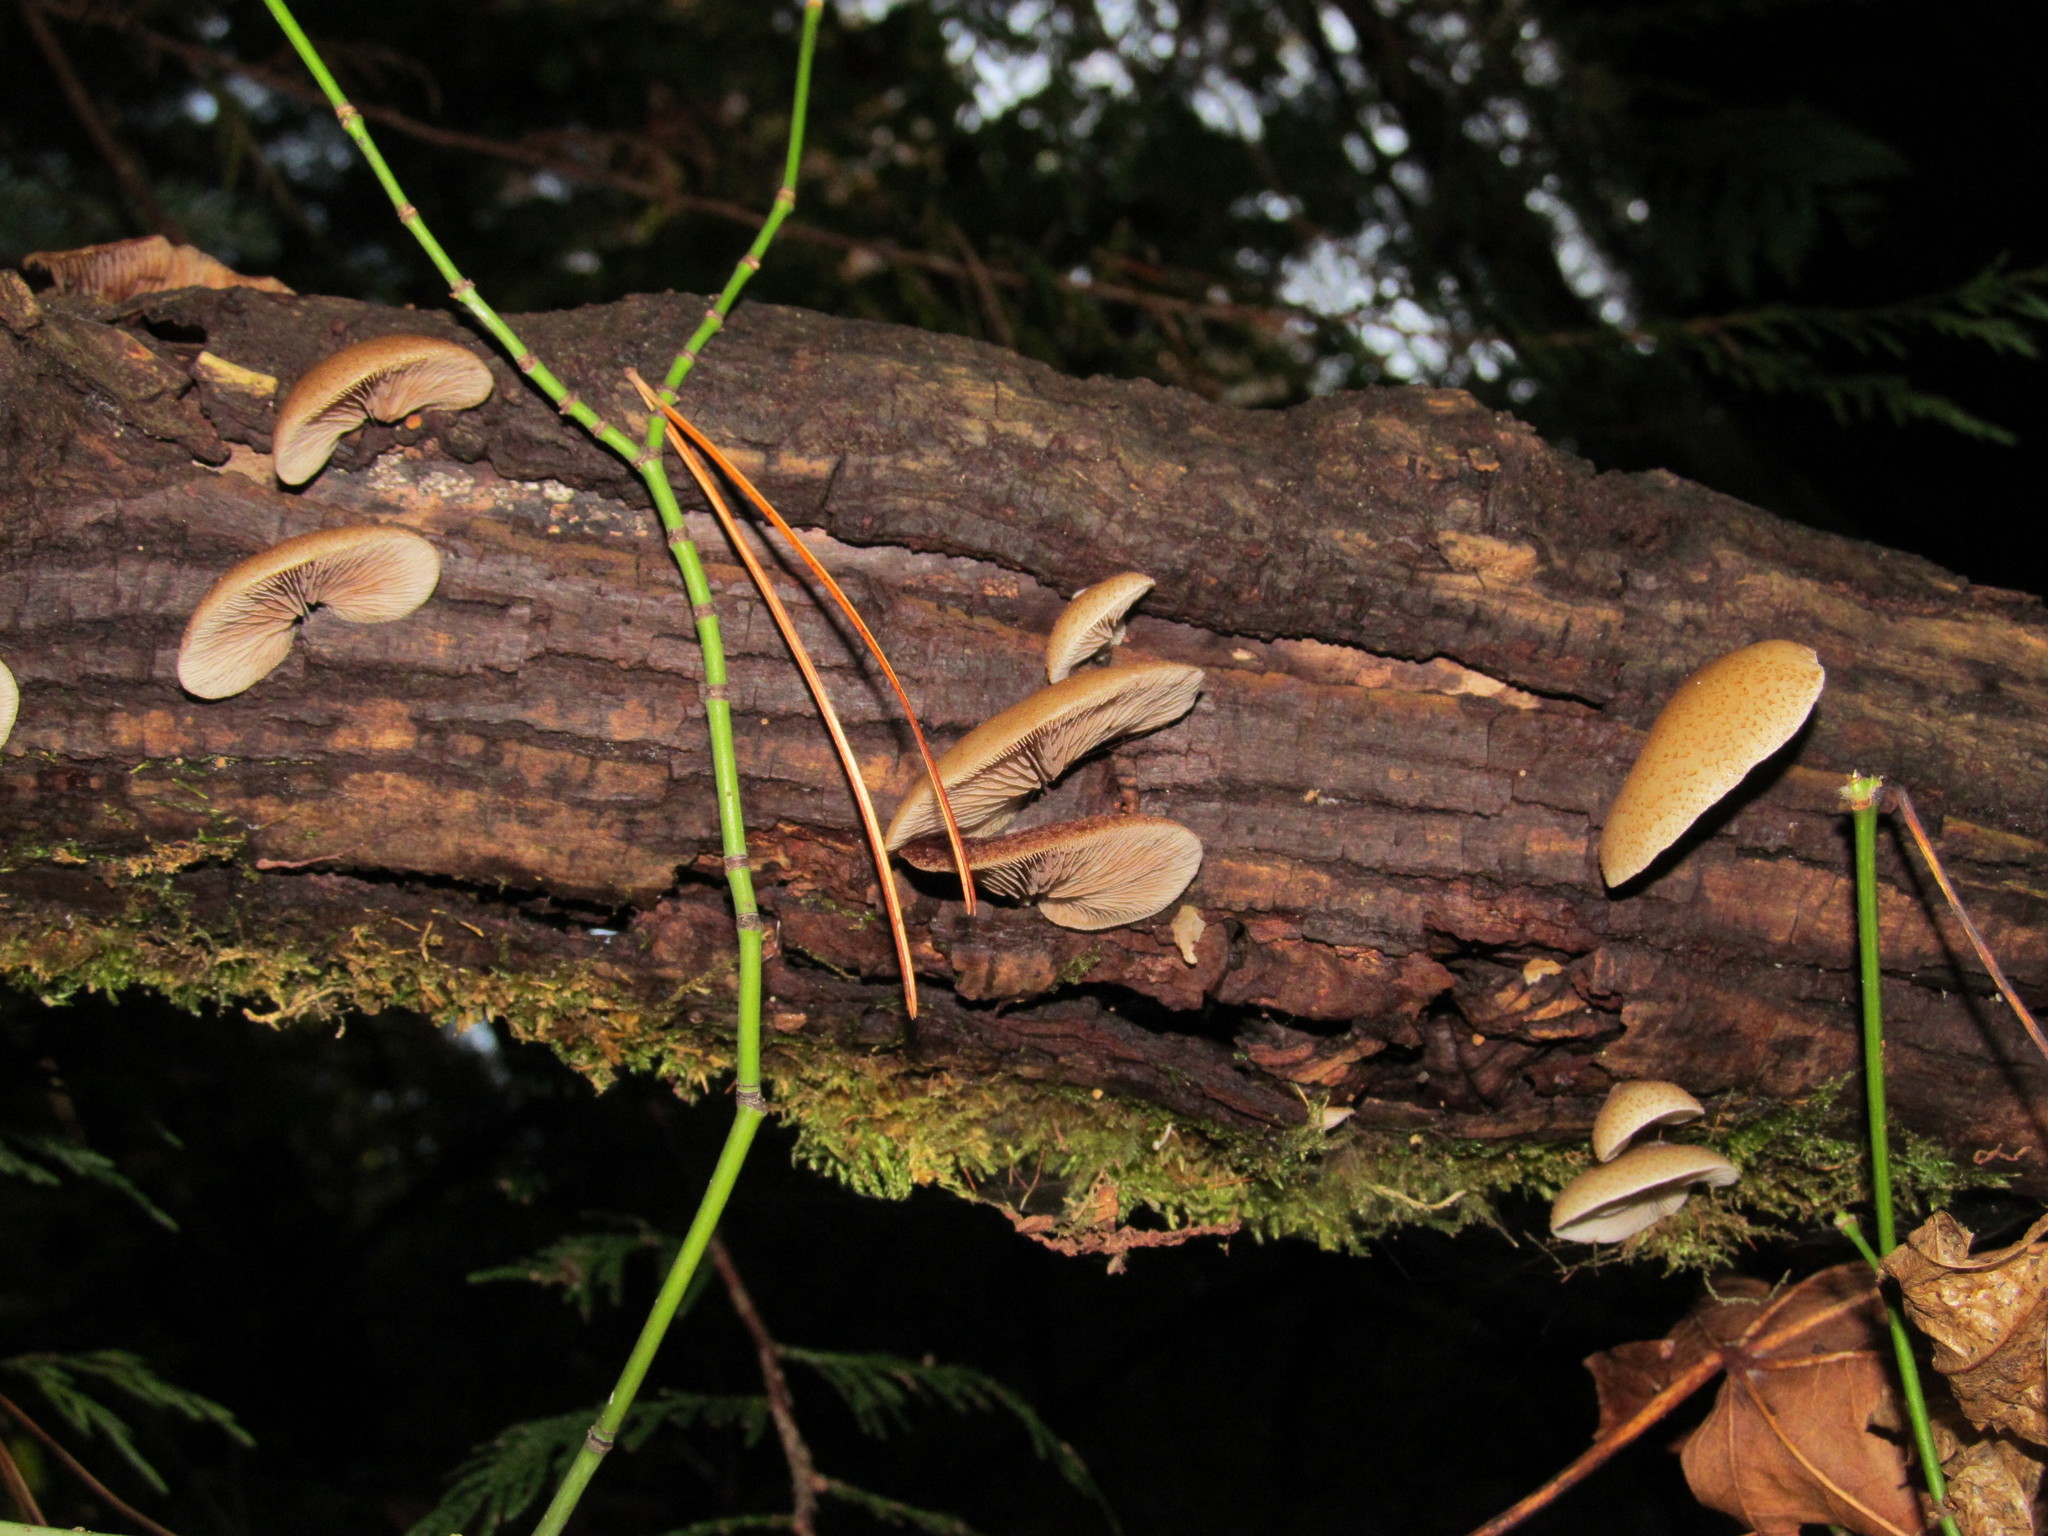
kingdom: Fungi
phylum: Basidiomycota
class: Agaricomycetes
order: Agaricales
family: Crepidotaceae
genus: Crepidotus
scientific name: Crepidotus mollis
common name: Peeling oysterling
